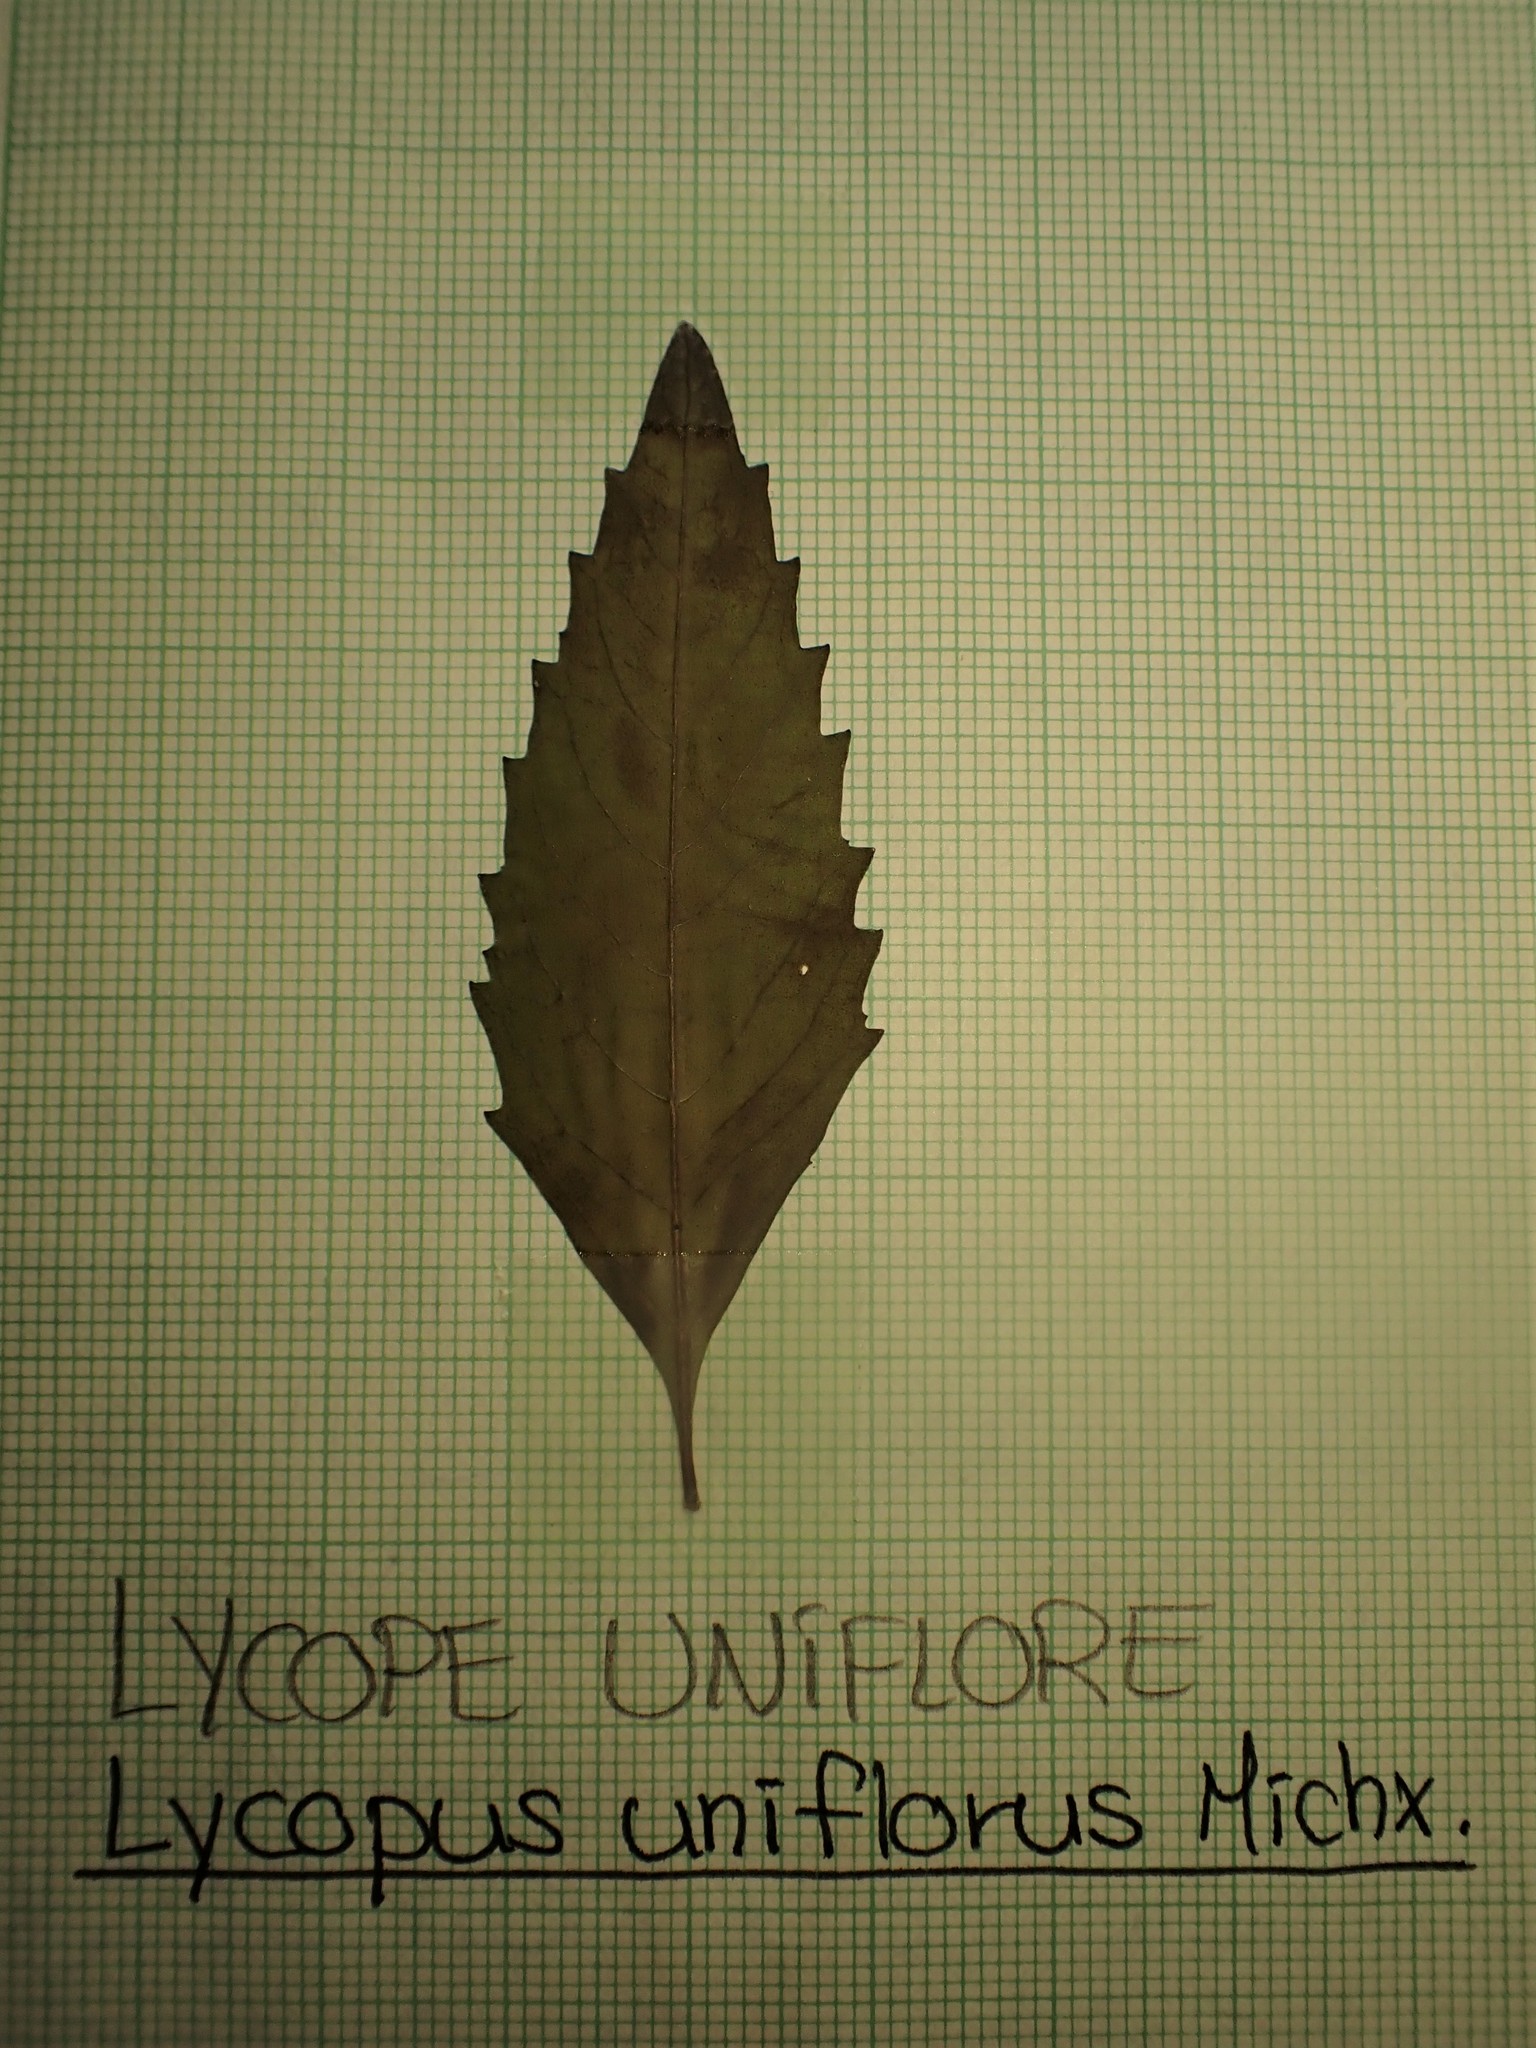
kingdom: Plantae
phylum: Tracheophyta
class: Magnoliopsida
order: Lamiales
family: Lamiaceae
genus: Lycopus
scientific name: Lycopus uniflorus
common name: Northern bugleweed
